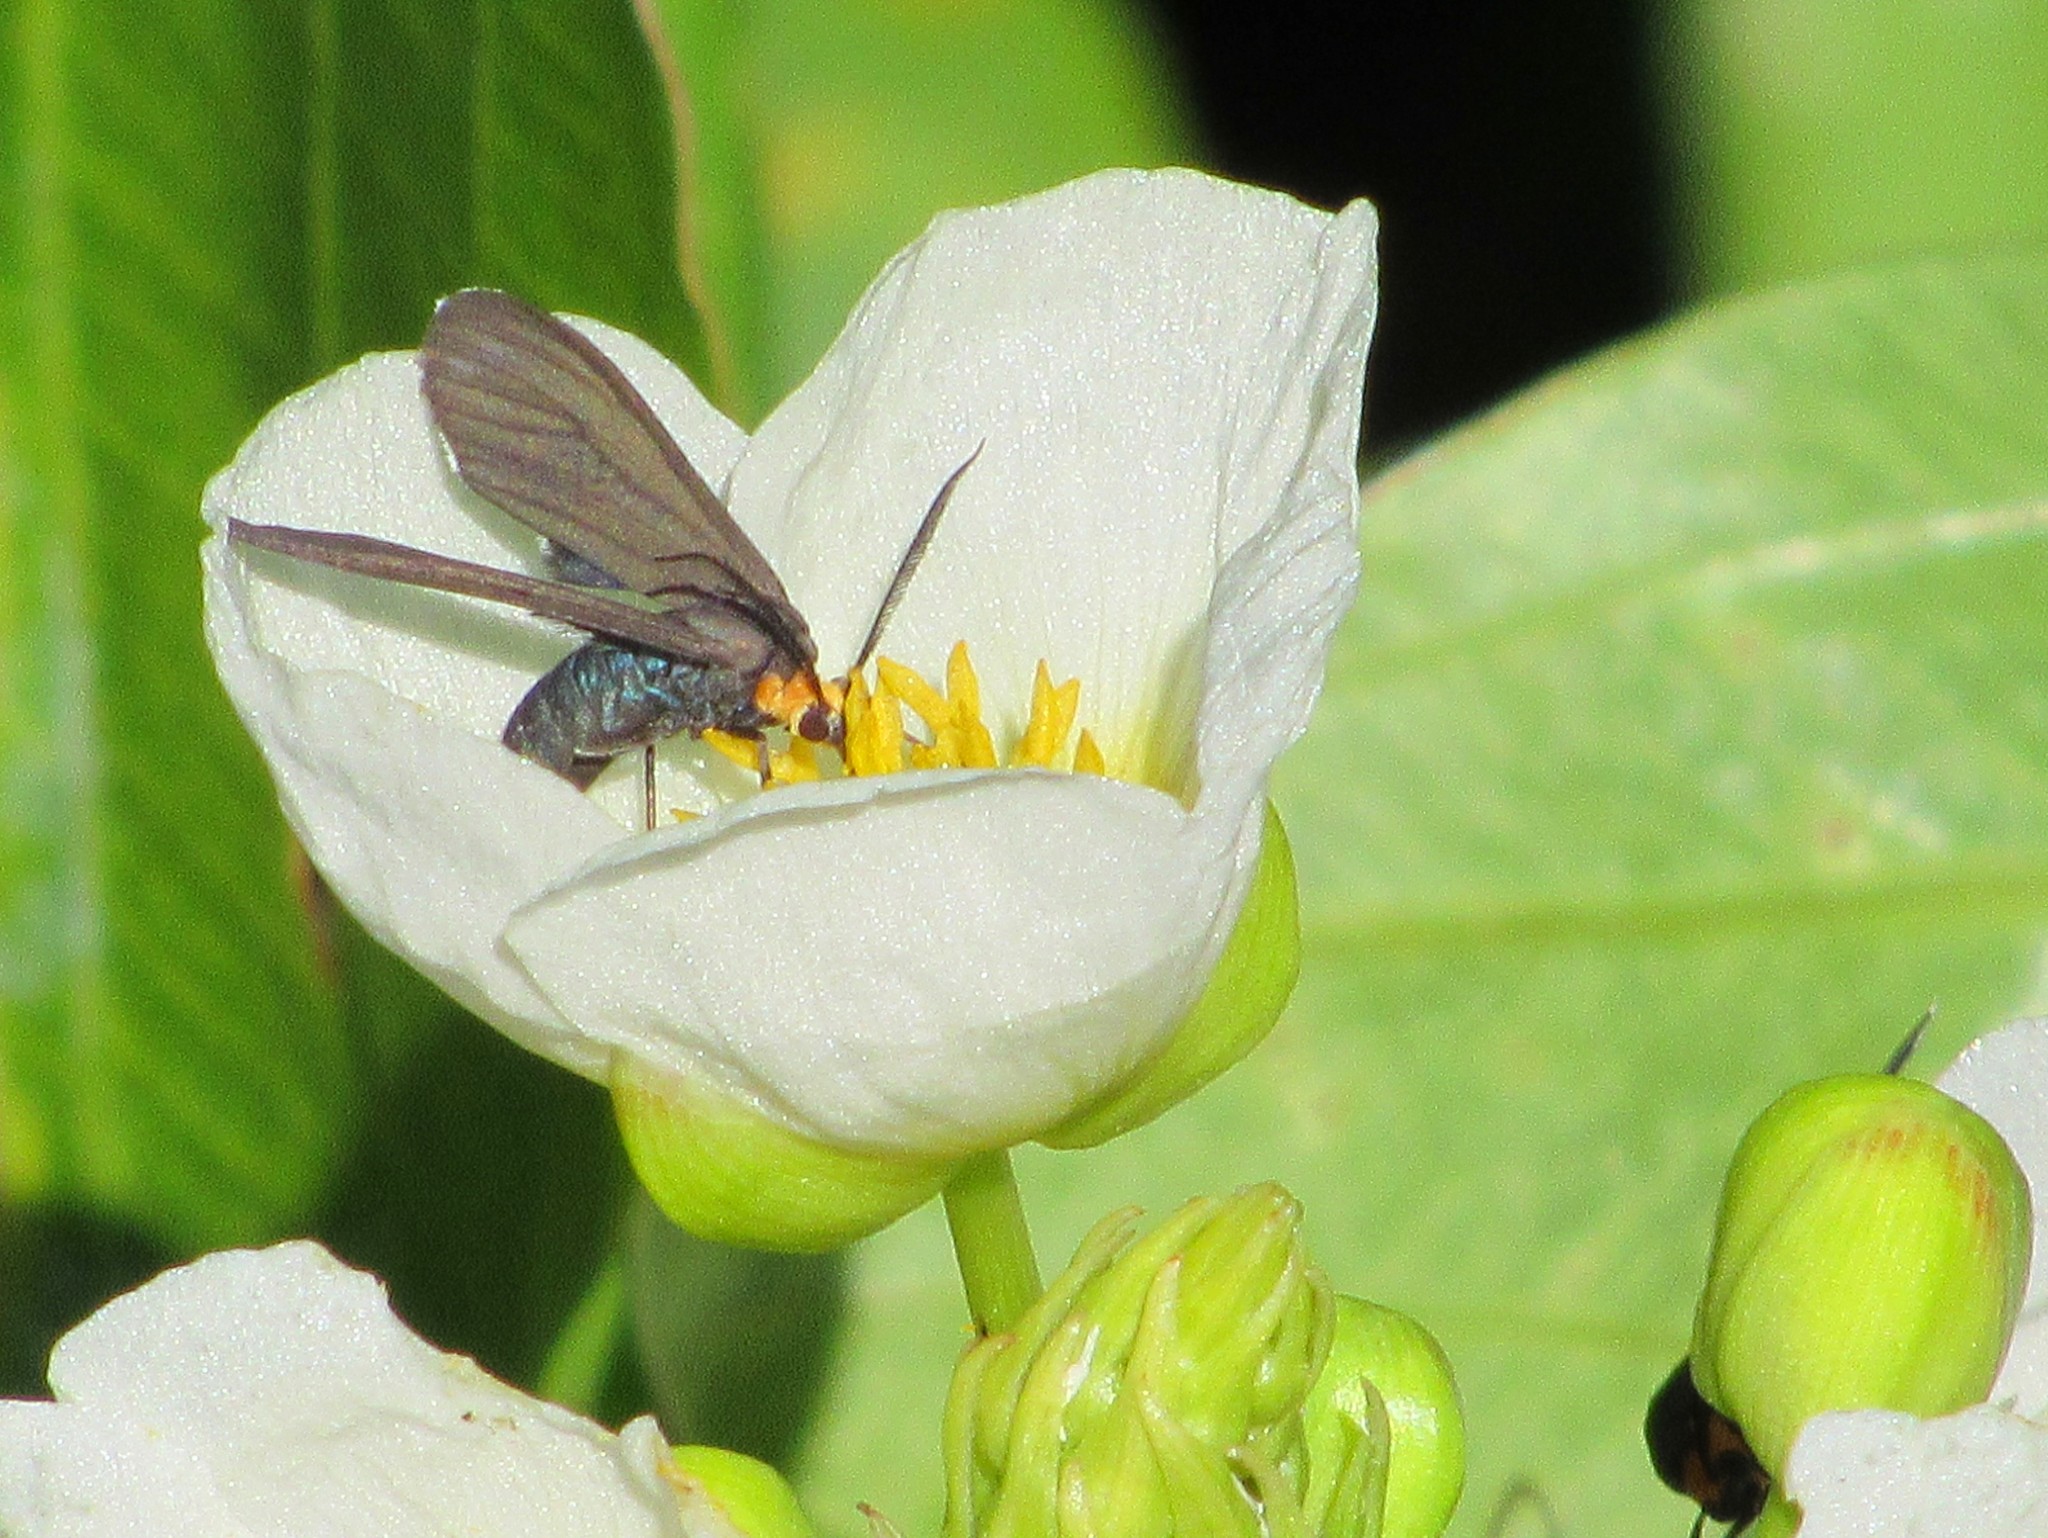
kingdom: Animalia
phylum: Arthropoda
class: Insecta
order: Lepidoptera
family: Erebidae
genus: Ctenucha
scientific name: Ctenucha rubriceps
